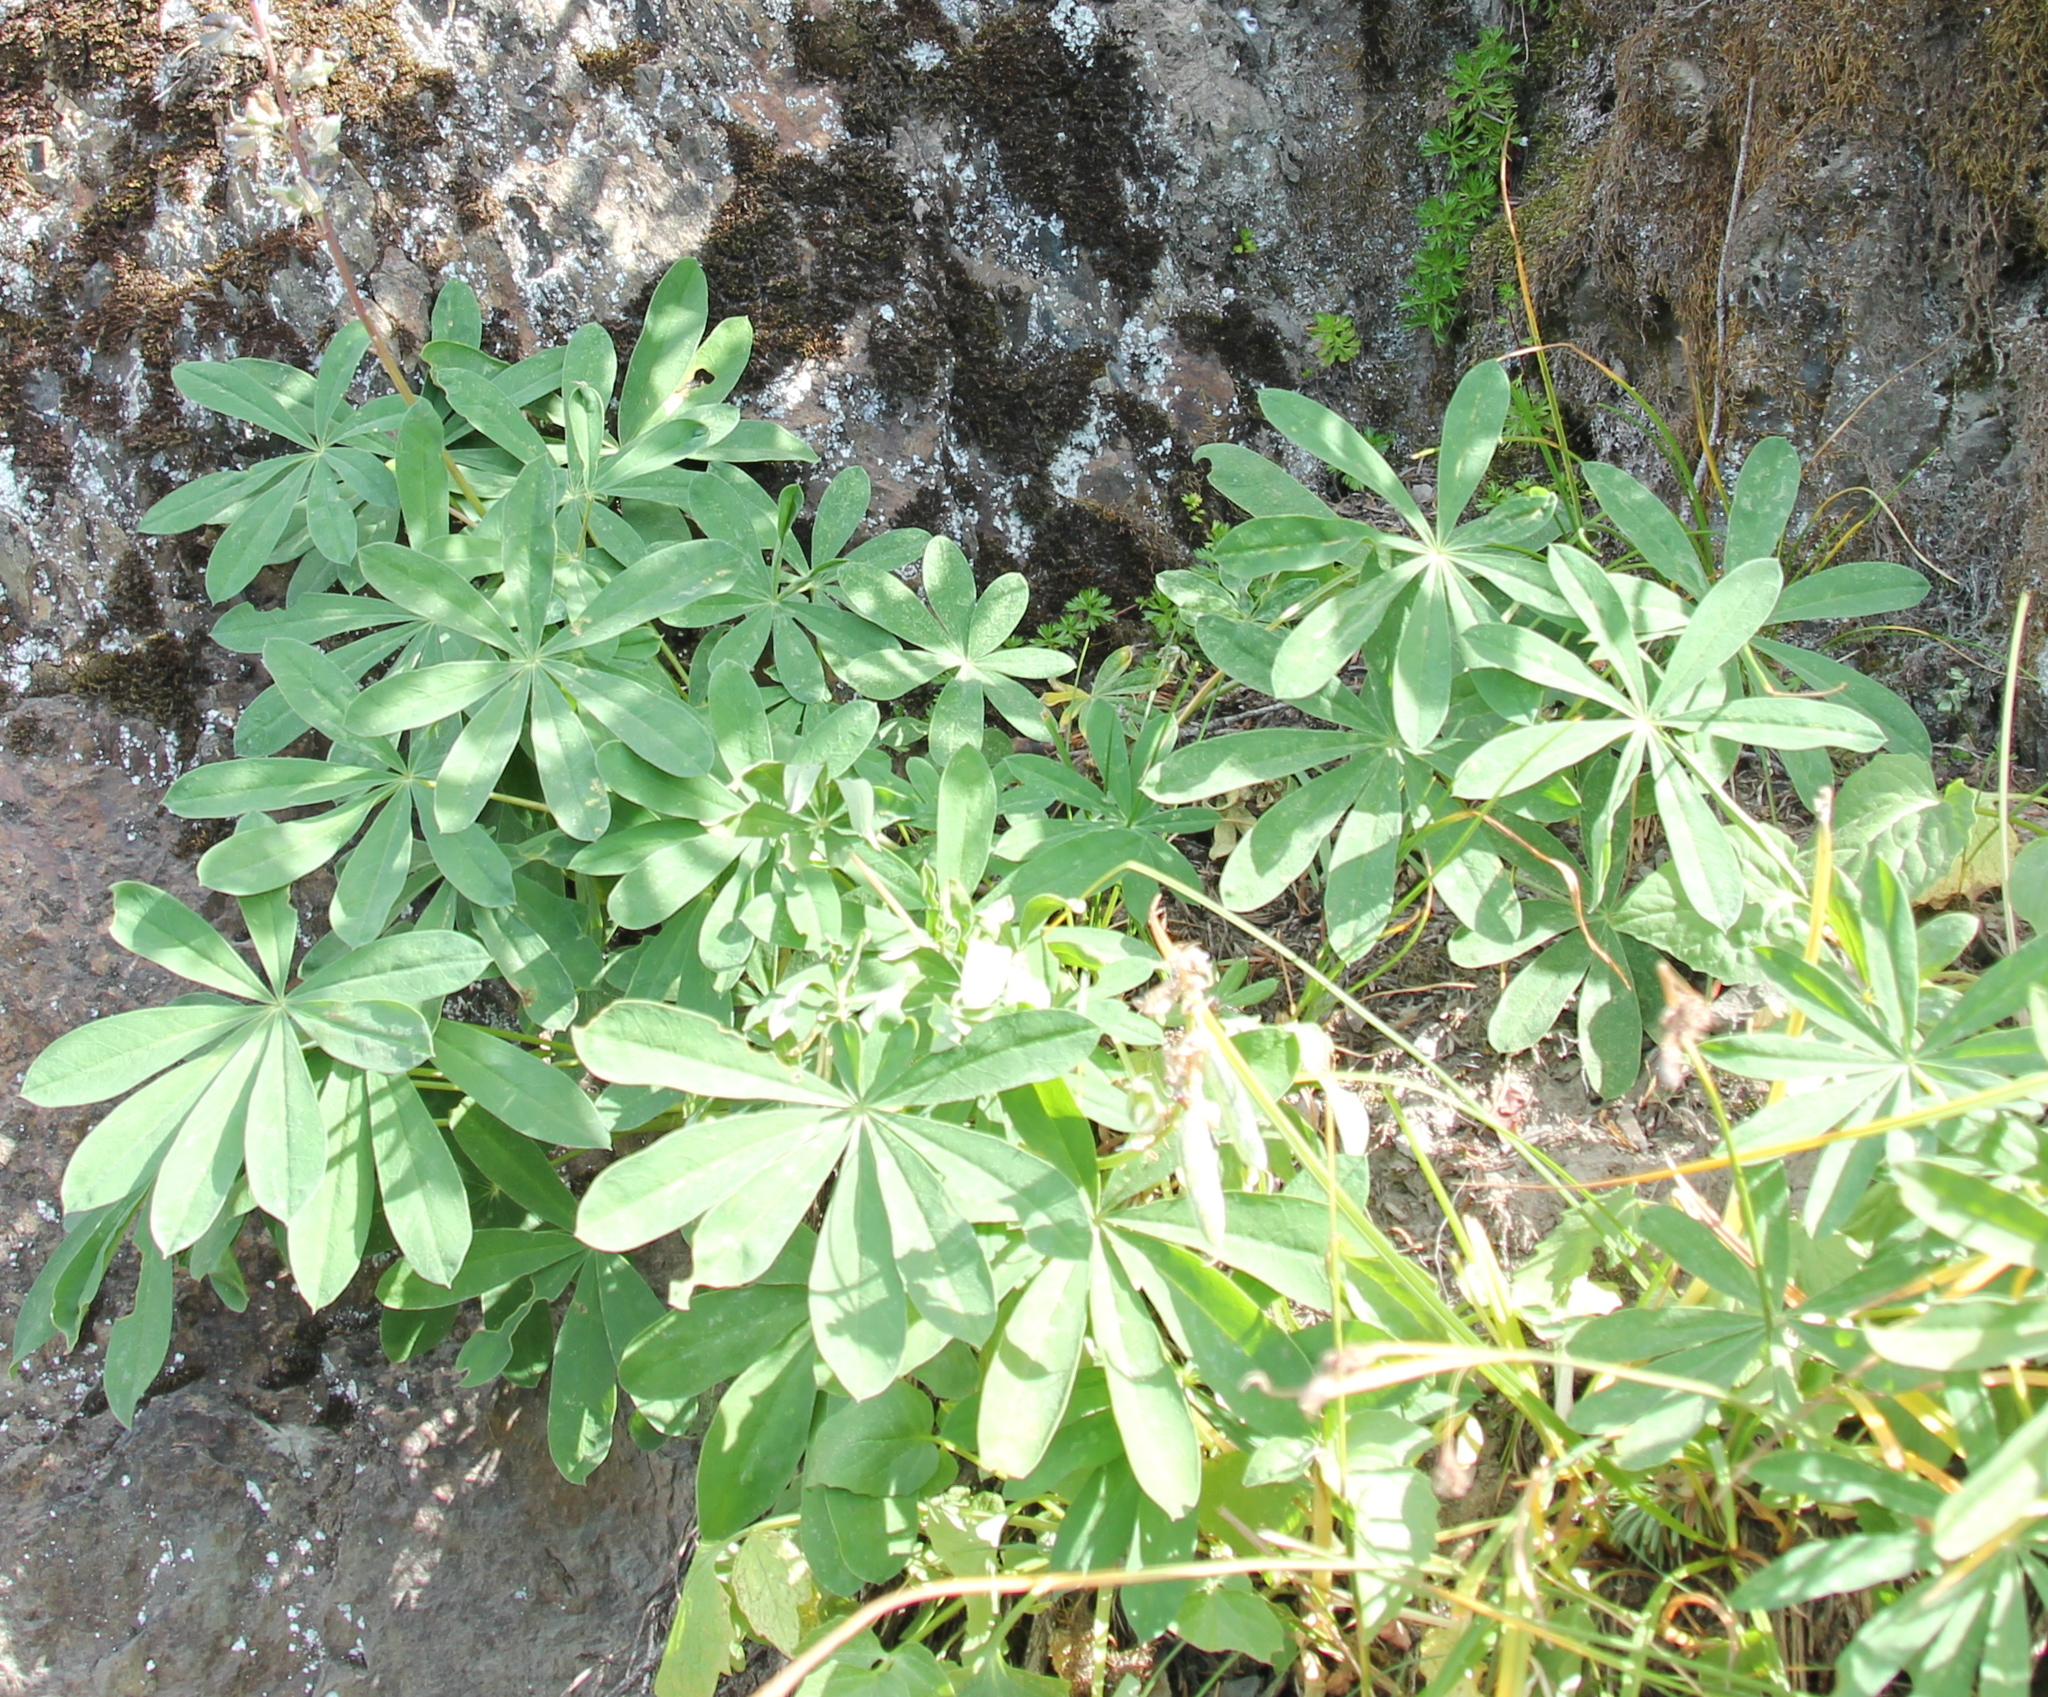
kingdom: Plantae
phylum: Tracheophyta
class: Magnoliopsida
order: Fabales
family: Fabaceae
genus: Lupinus
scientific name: Lupinus latifolius
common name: Broad-leaved lupine
